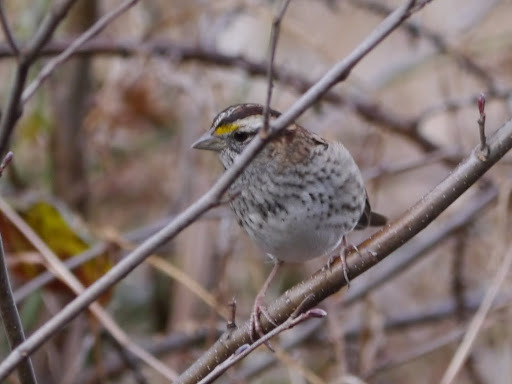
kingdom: Animalia
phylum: Chordata
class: Aves
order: Passeriformes
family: Passerellidae
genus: Zonotrichia
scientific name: Zonotrichia albicollis
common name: White-throated sparrow
